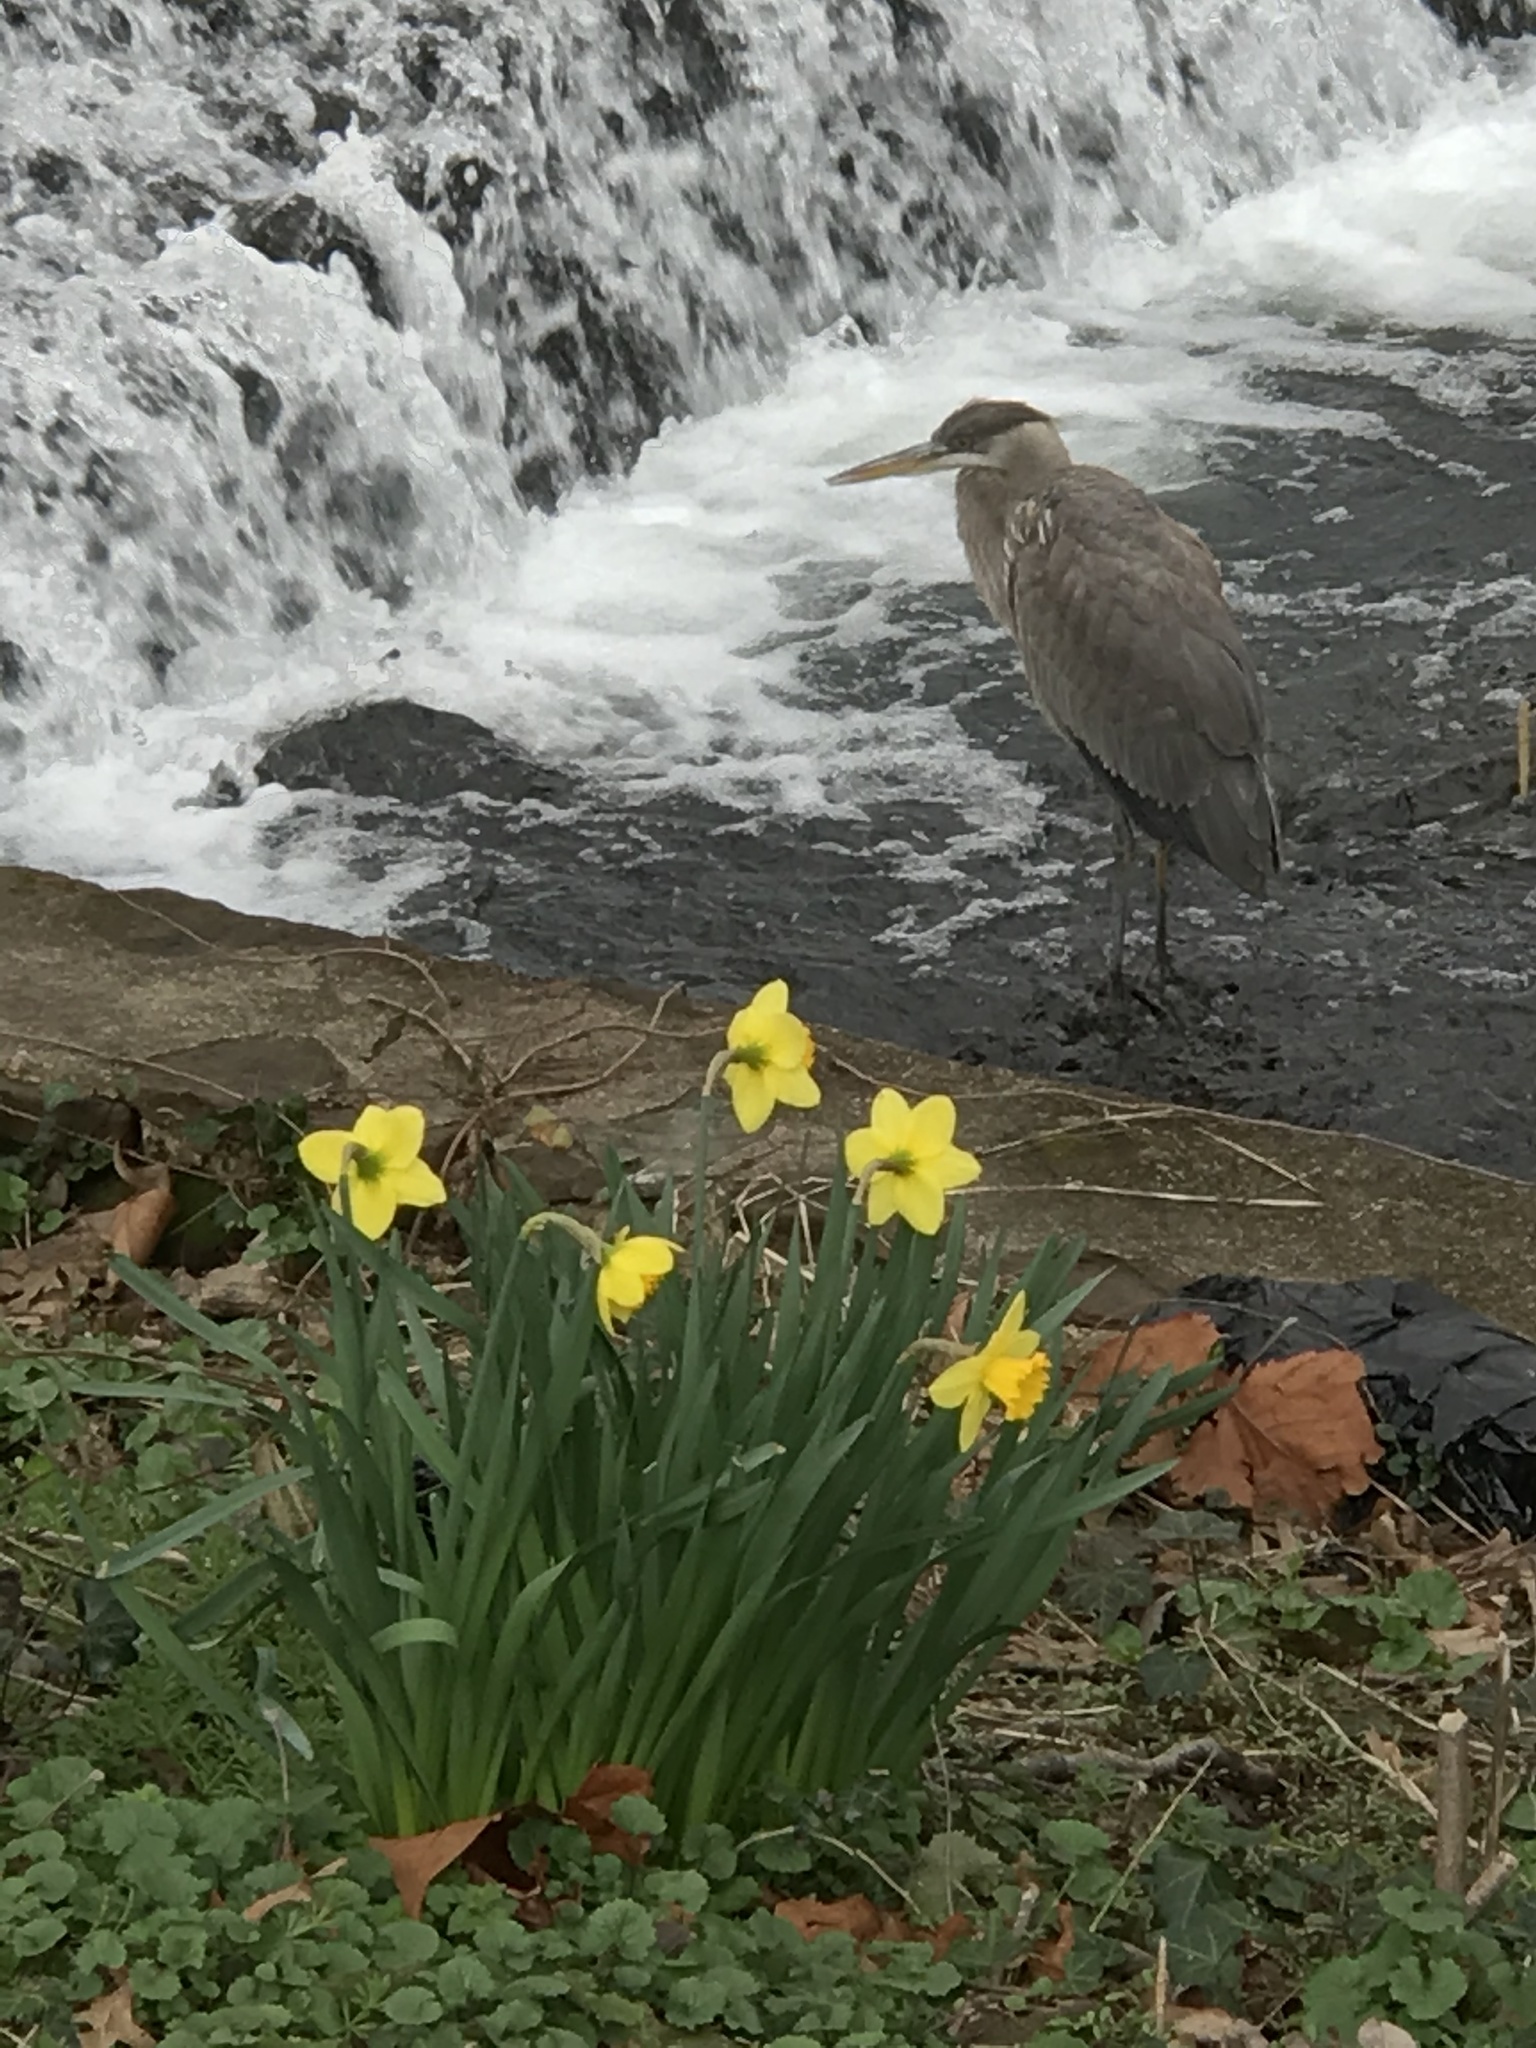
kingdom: Animalia
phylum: Chordata
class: Aves
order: Pelecaniformes
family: Ardeidae
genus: Ardea
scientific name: Ardea herodias
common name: Great blue heron
